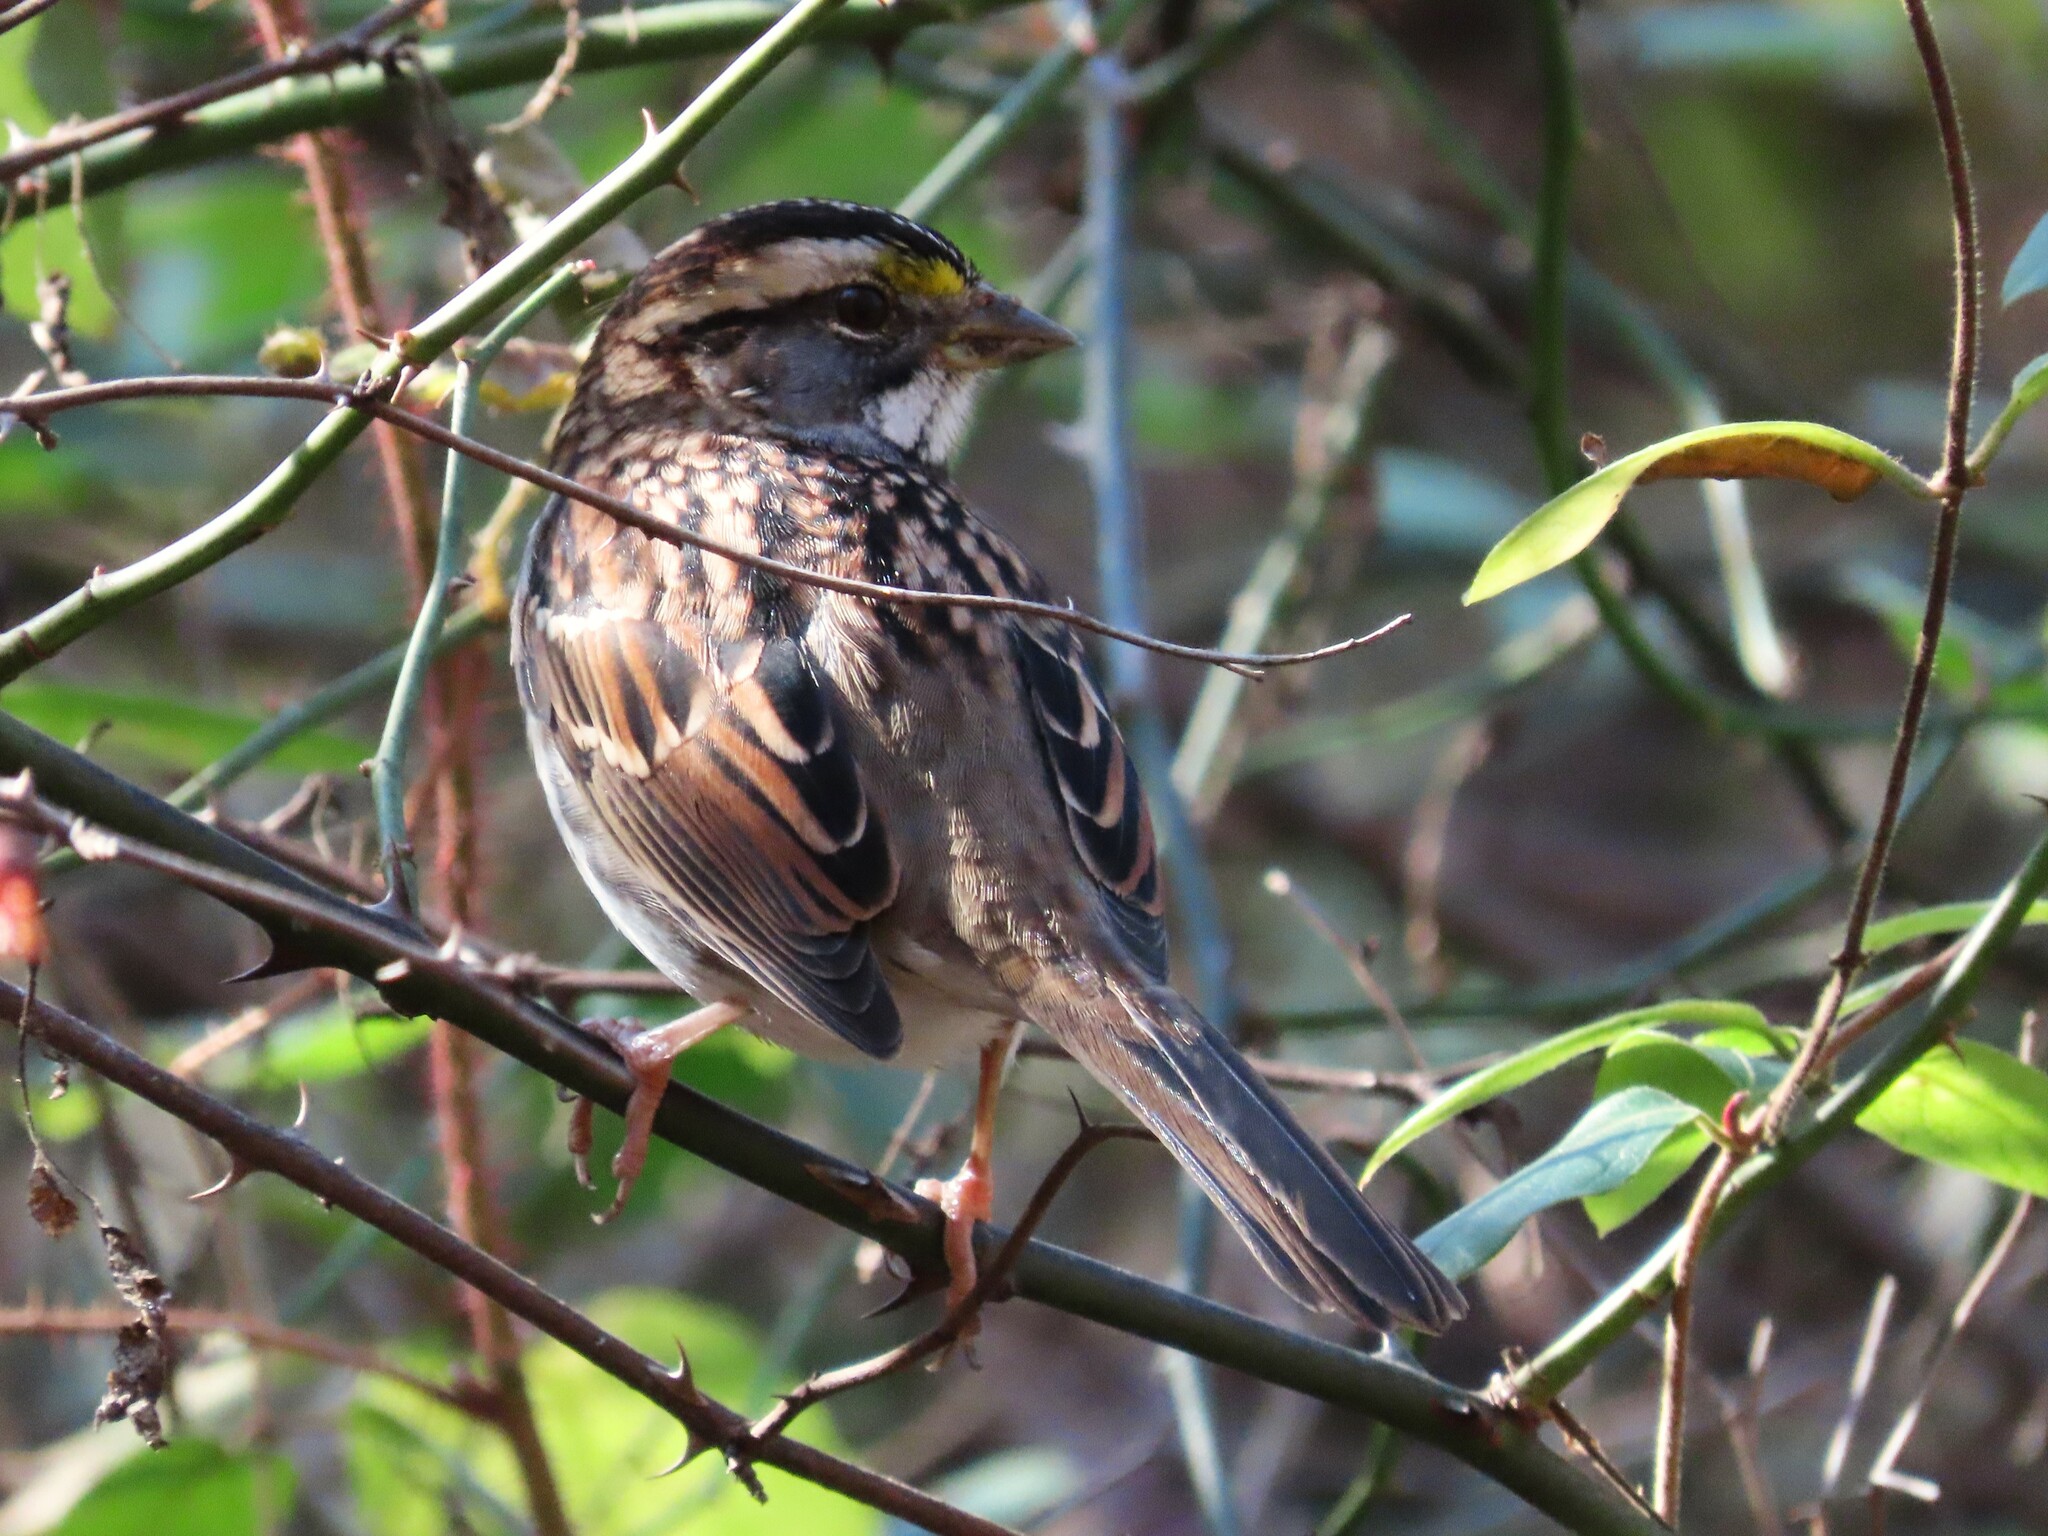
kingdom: Animalia
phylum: Chordata
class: Aves
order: Passeriformes
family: Passerellidae
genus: Zonotrichia
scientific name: Zonotrichia albicollis
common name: White-throated sparrow
